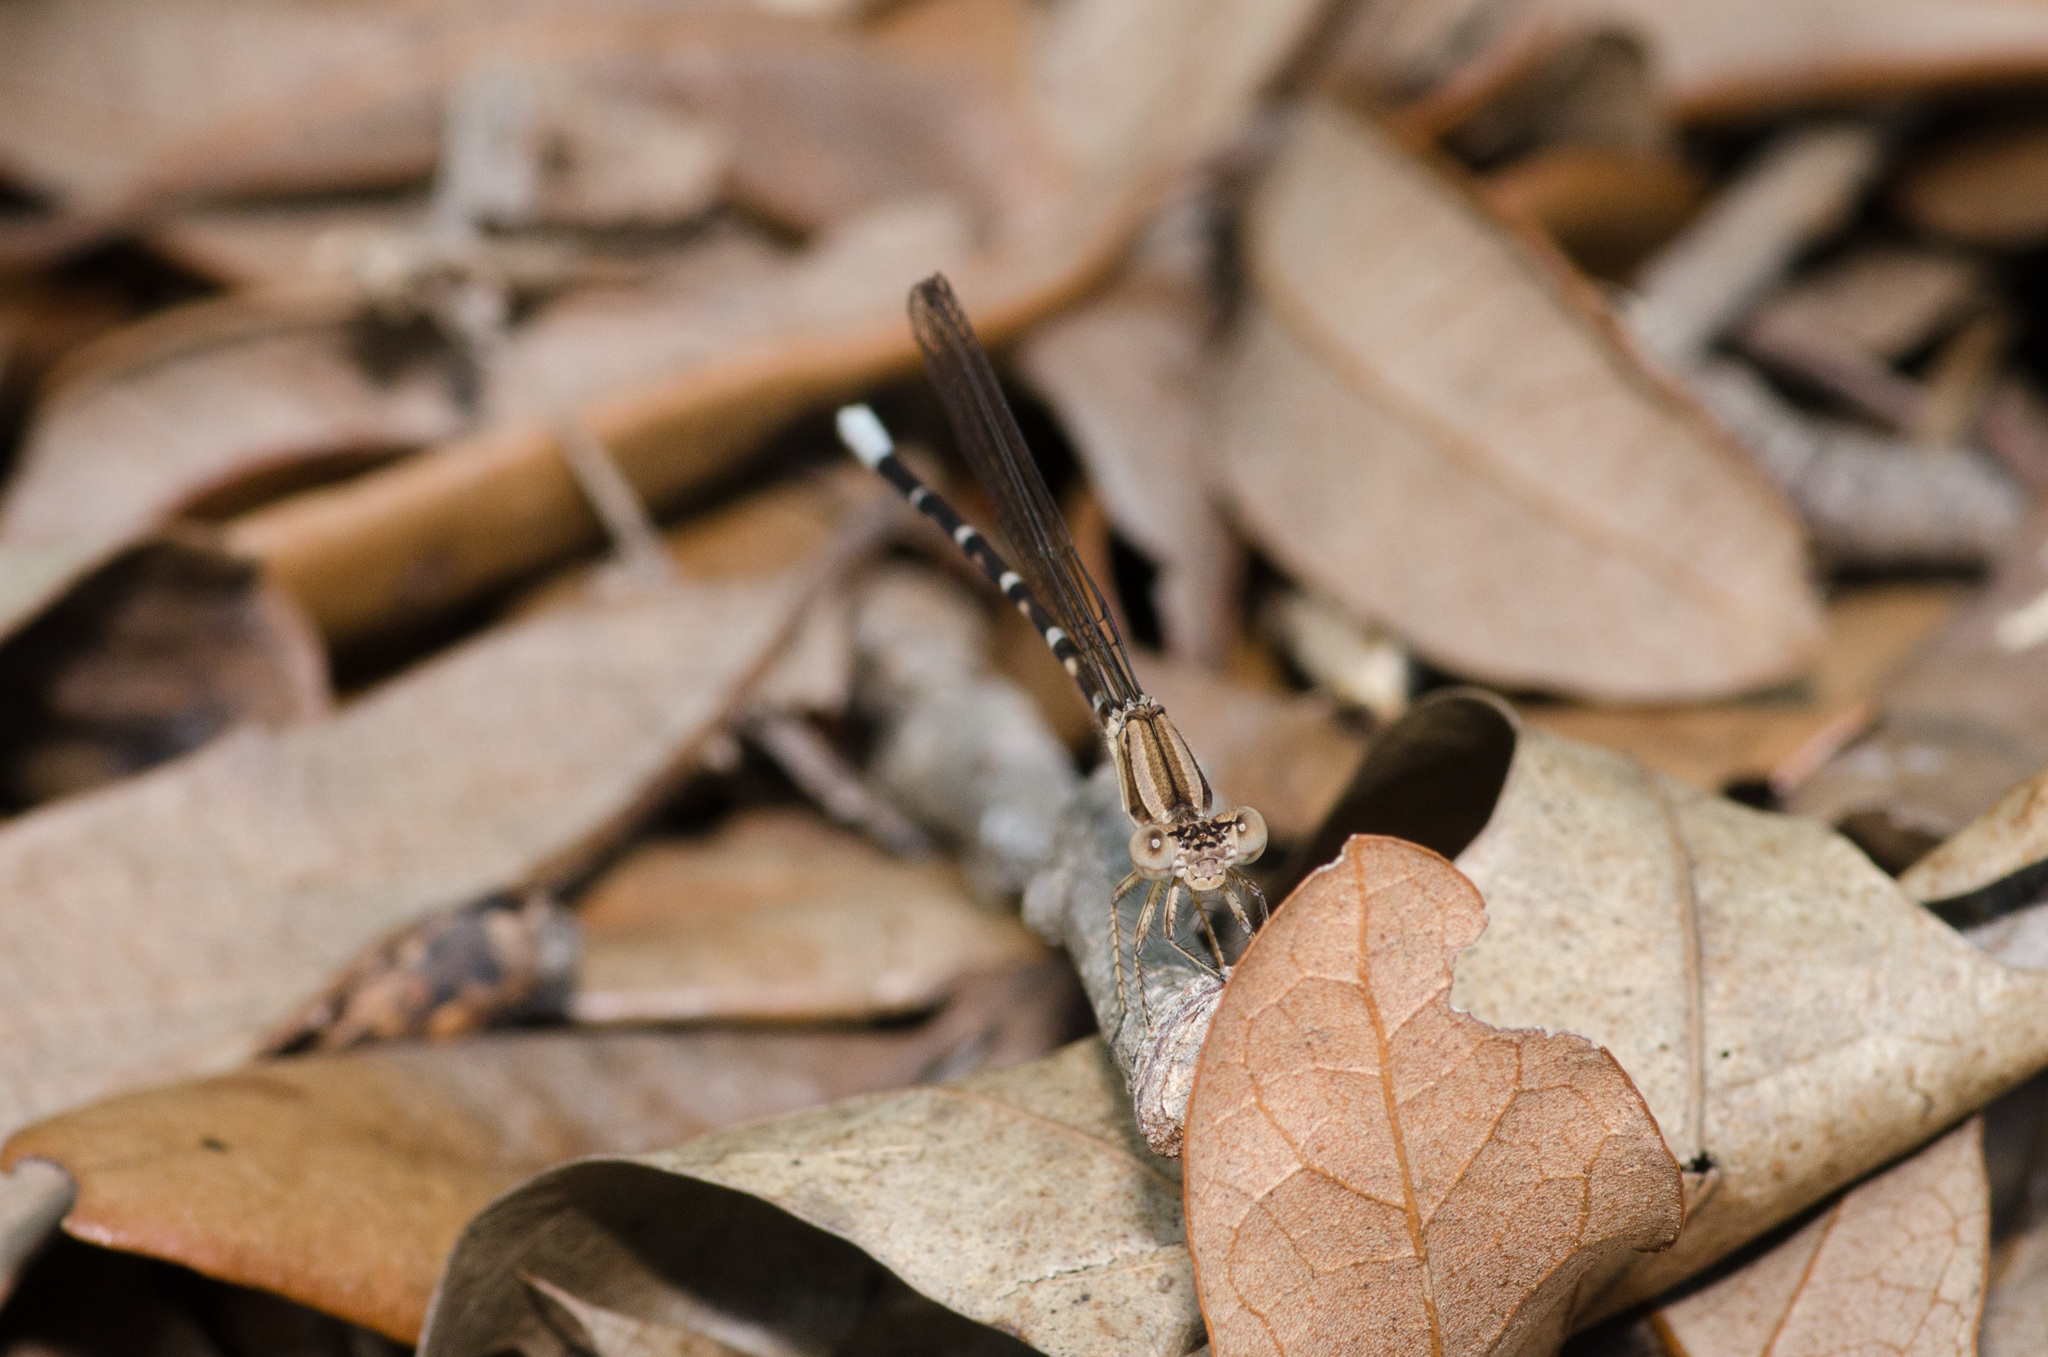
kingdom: Animalia
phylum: Arthropoda
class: Insecta
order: Odonata
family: Coenagrionidae
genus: Argia
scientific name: Argia sedula
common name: Blue-ringed dancer
